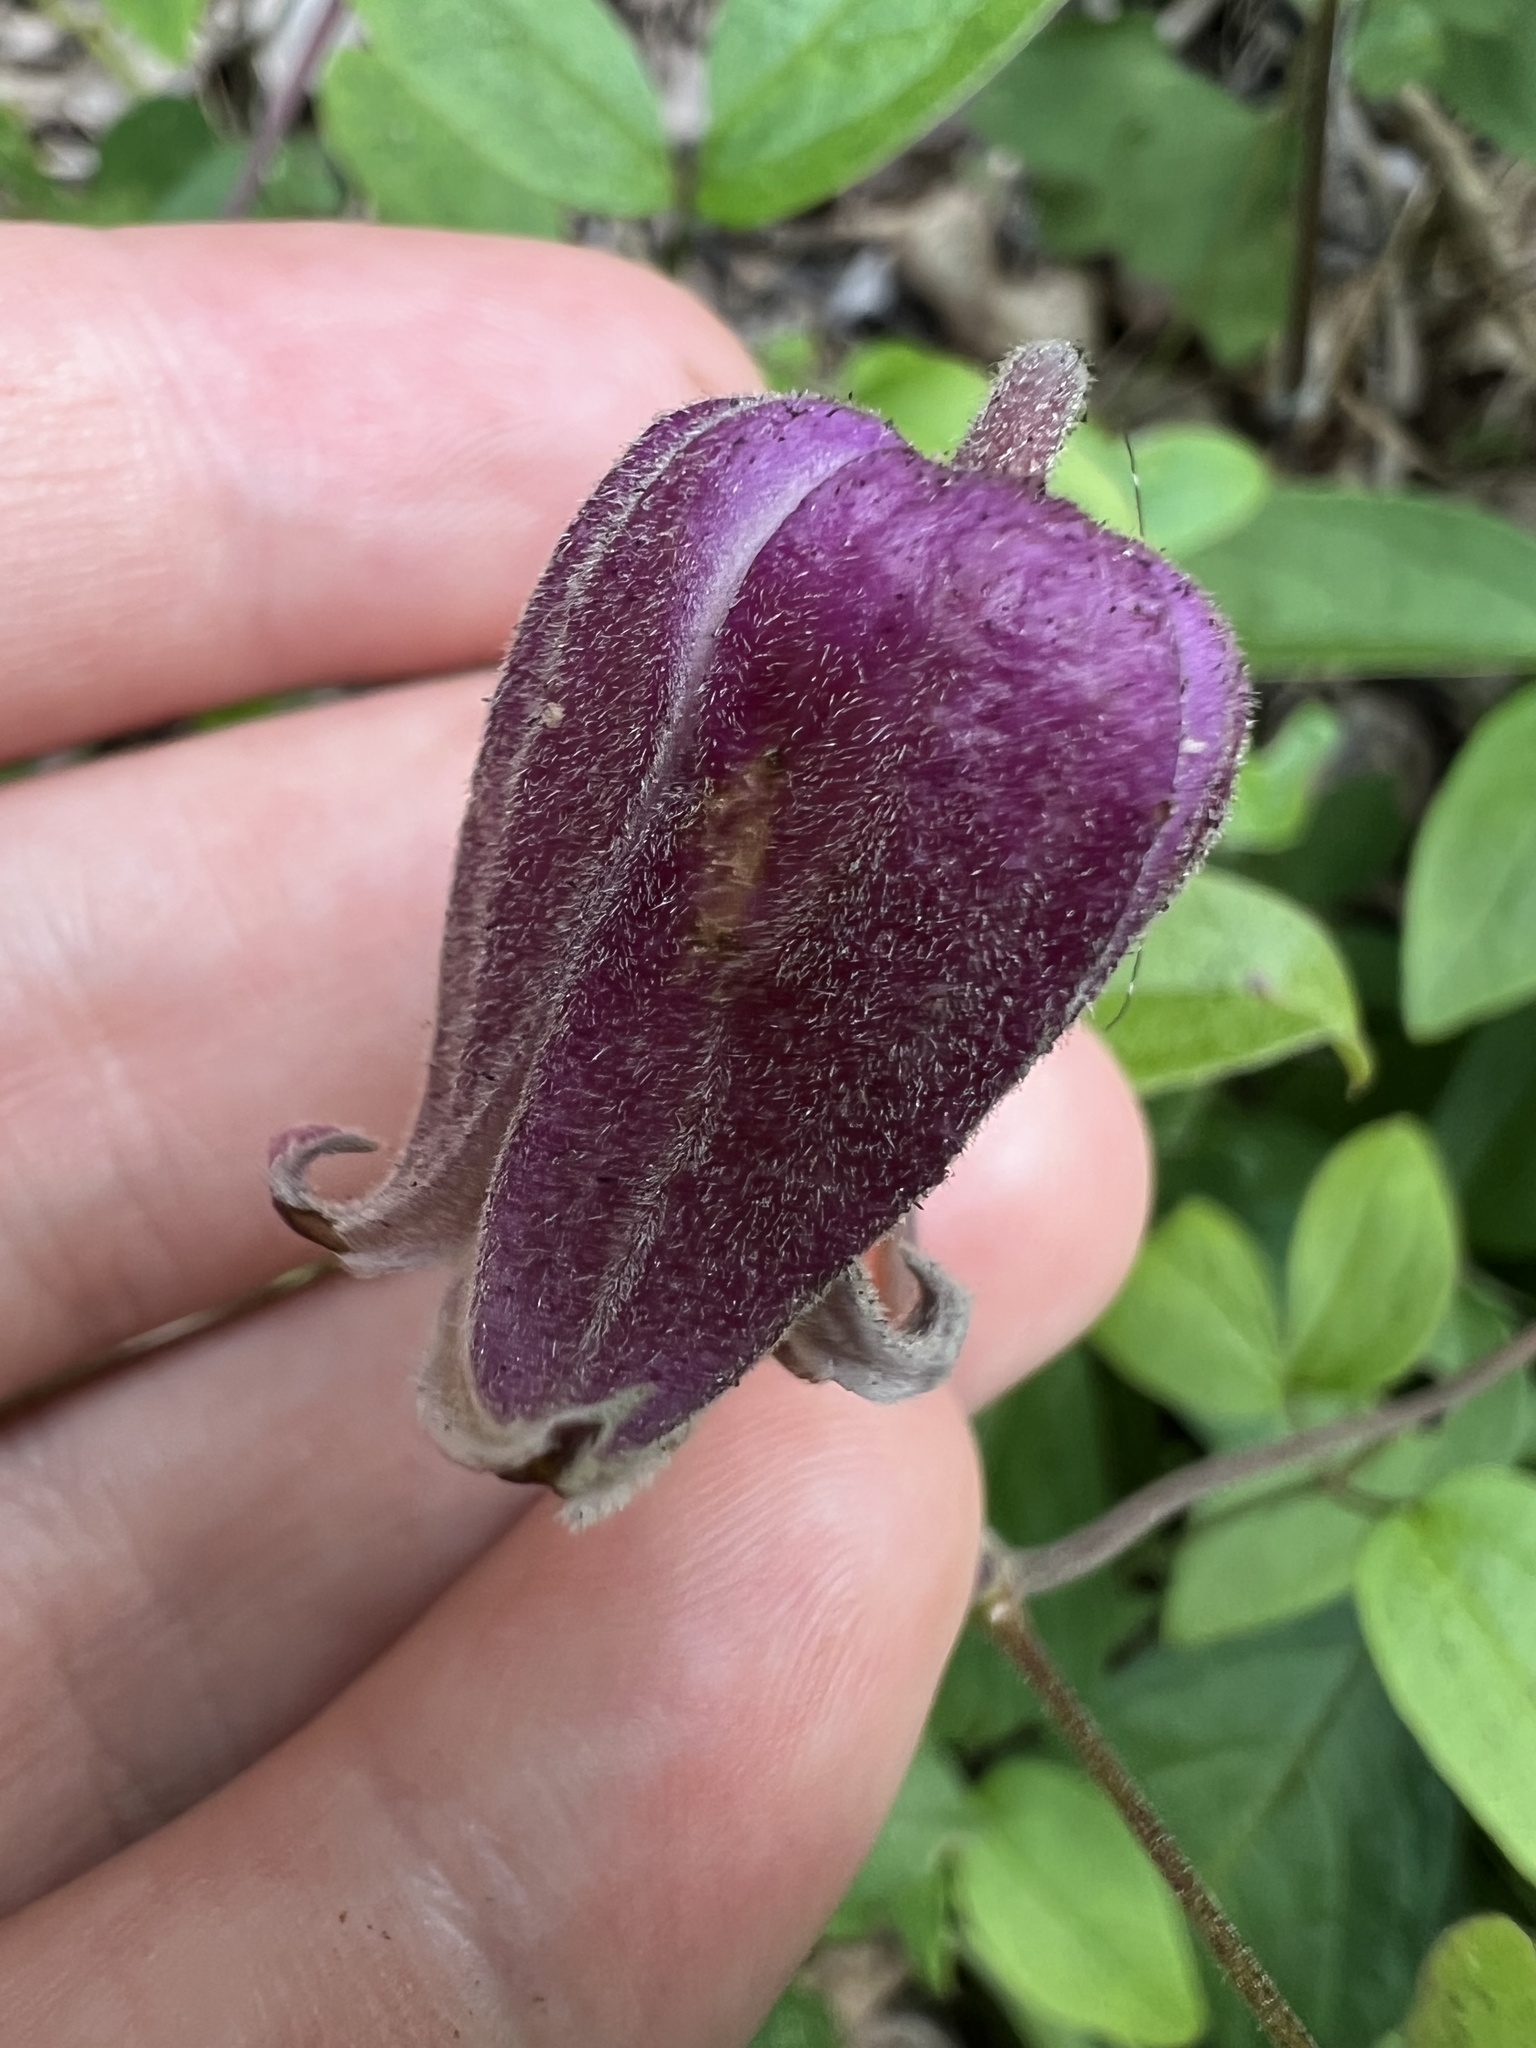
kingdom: Plantae
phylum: Tracheophyta
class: Magnoliopsida
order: Ranunculales
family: Ranunculaceae
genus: Clematis
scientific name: Clematis vinacea
